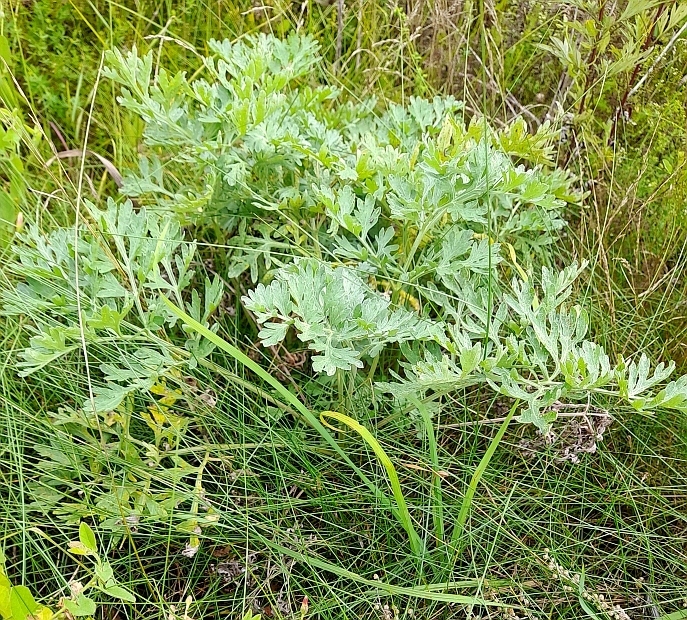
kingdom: Plantae
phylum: Tracheophyta
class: Magnoliopsida
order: Asterales
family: Asteraceae
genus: Artemisia
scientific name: Artemisia absinthium
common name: Wormwood
